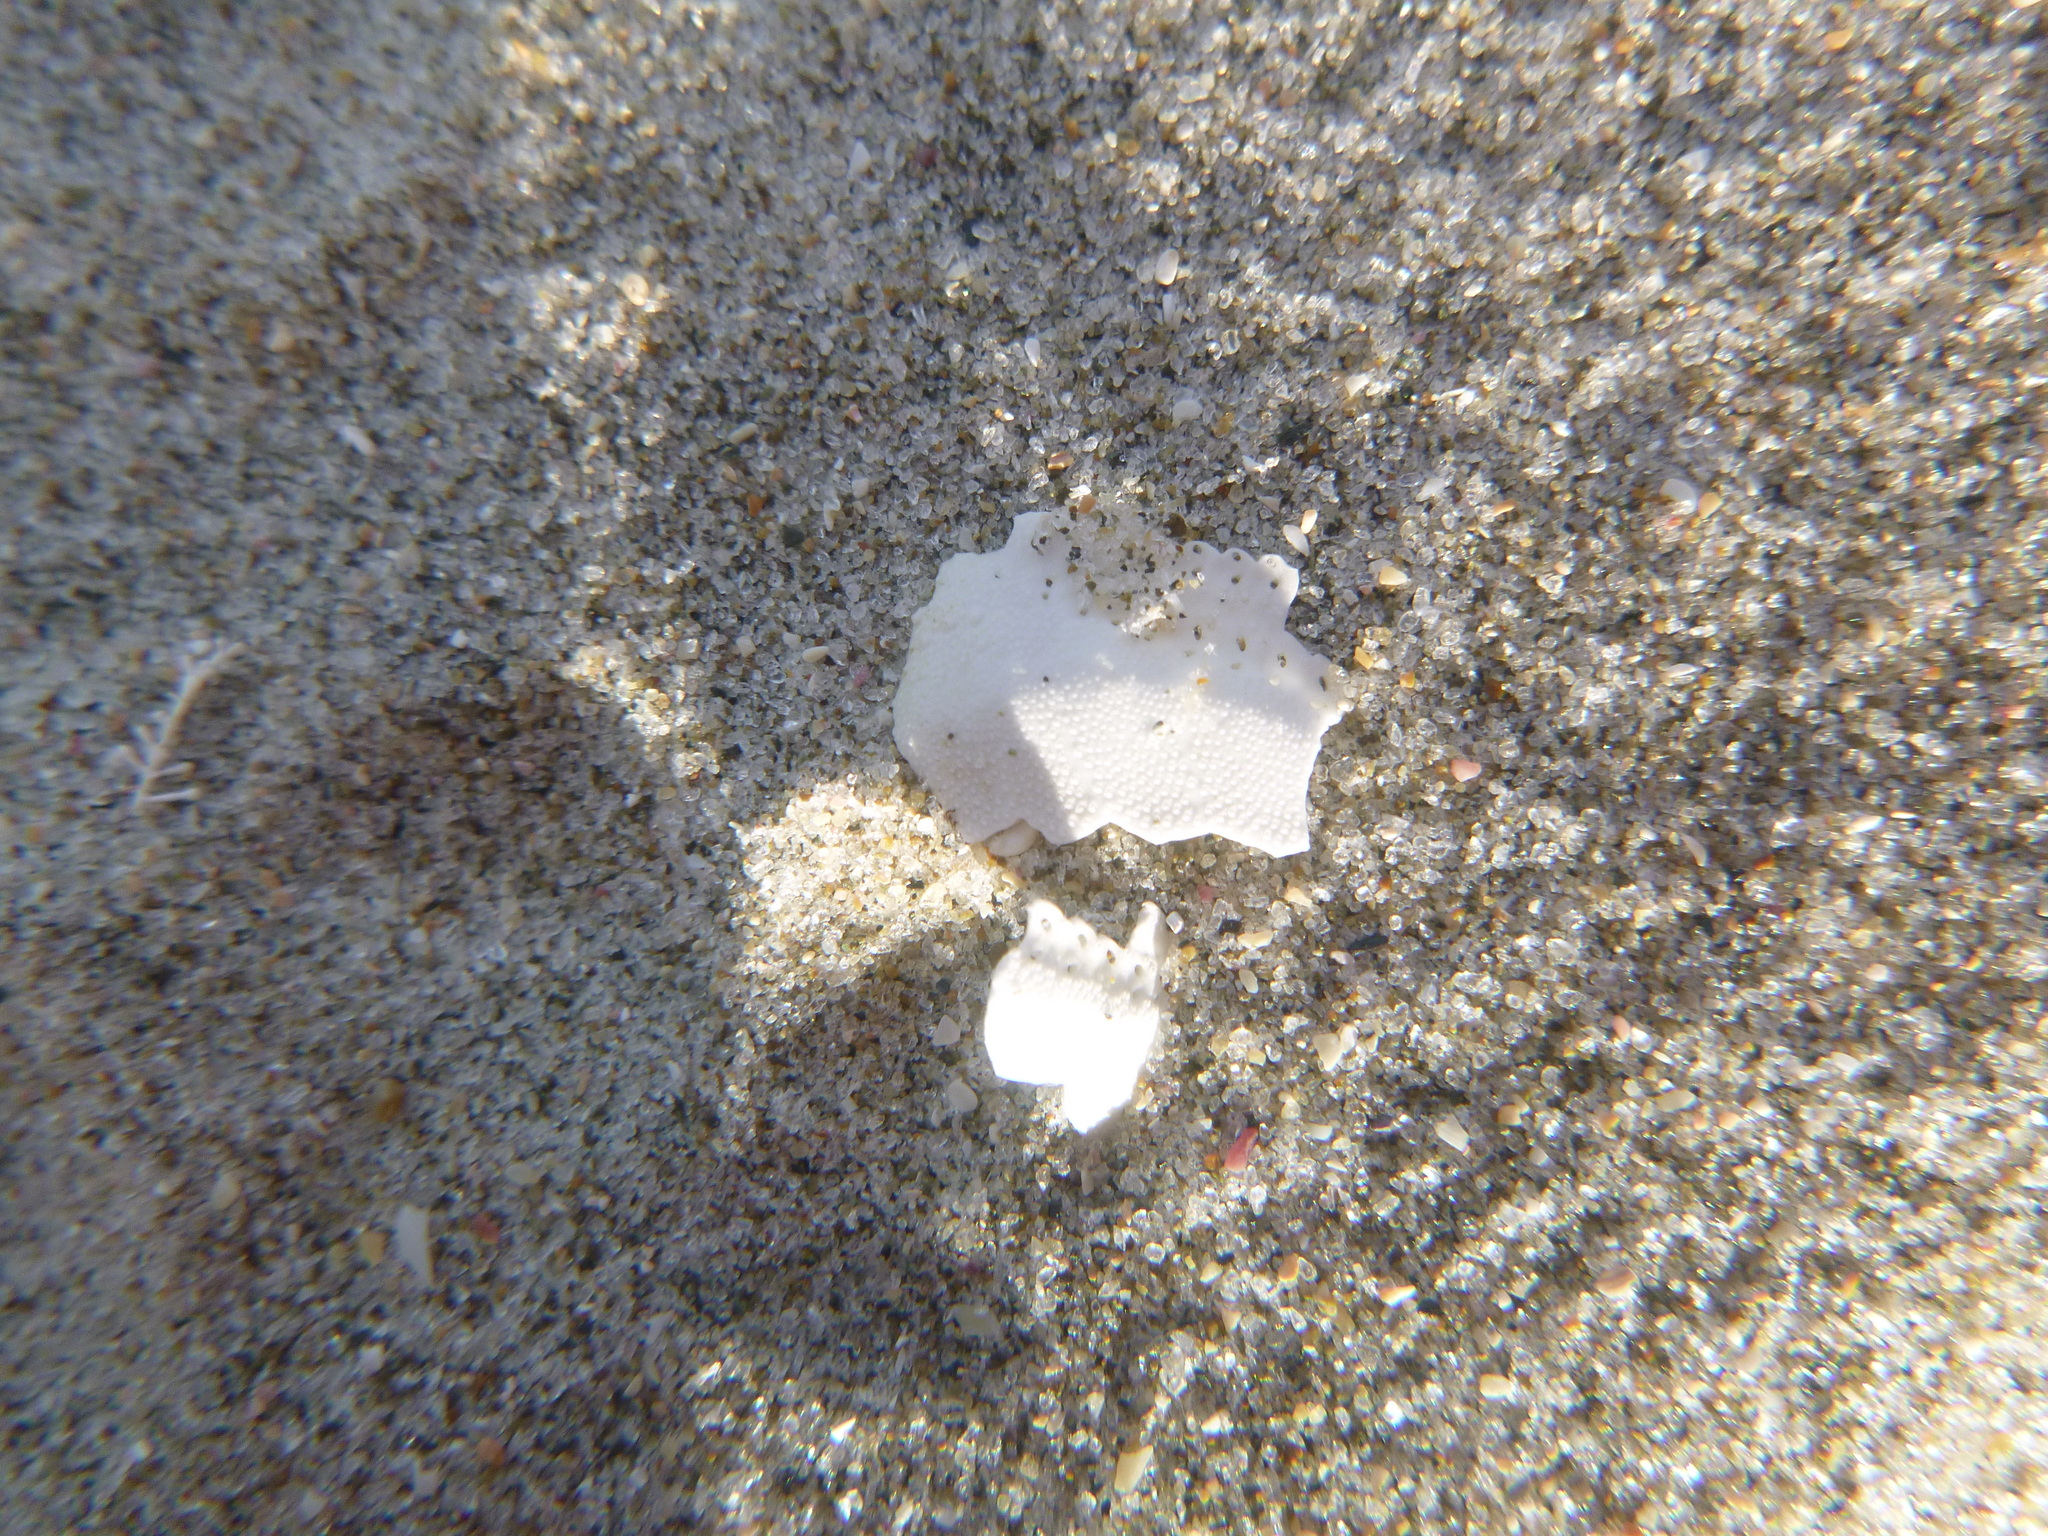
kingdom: Animalia
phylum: Echinodermata
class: Echinoidea
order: Spatangoida
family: Loveniidae
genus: Echinocardium
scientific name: Echinocardium cordatum
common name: Heart-urchin
